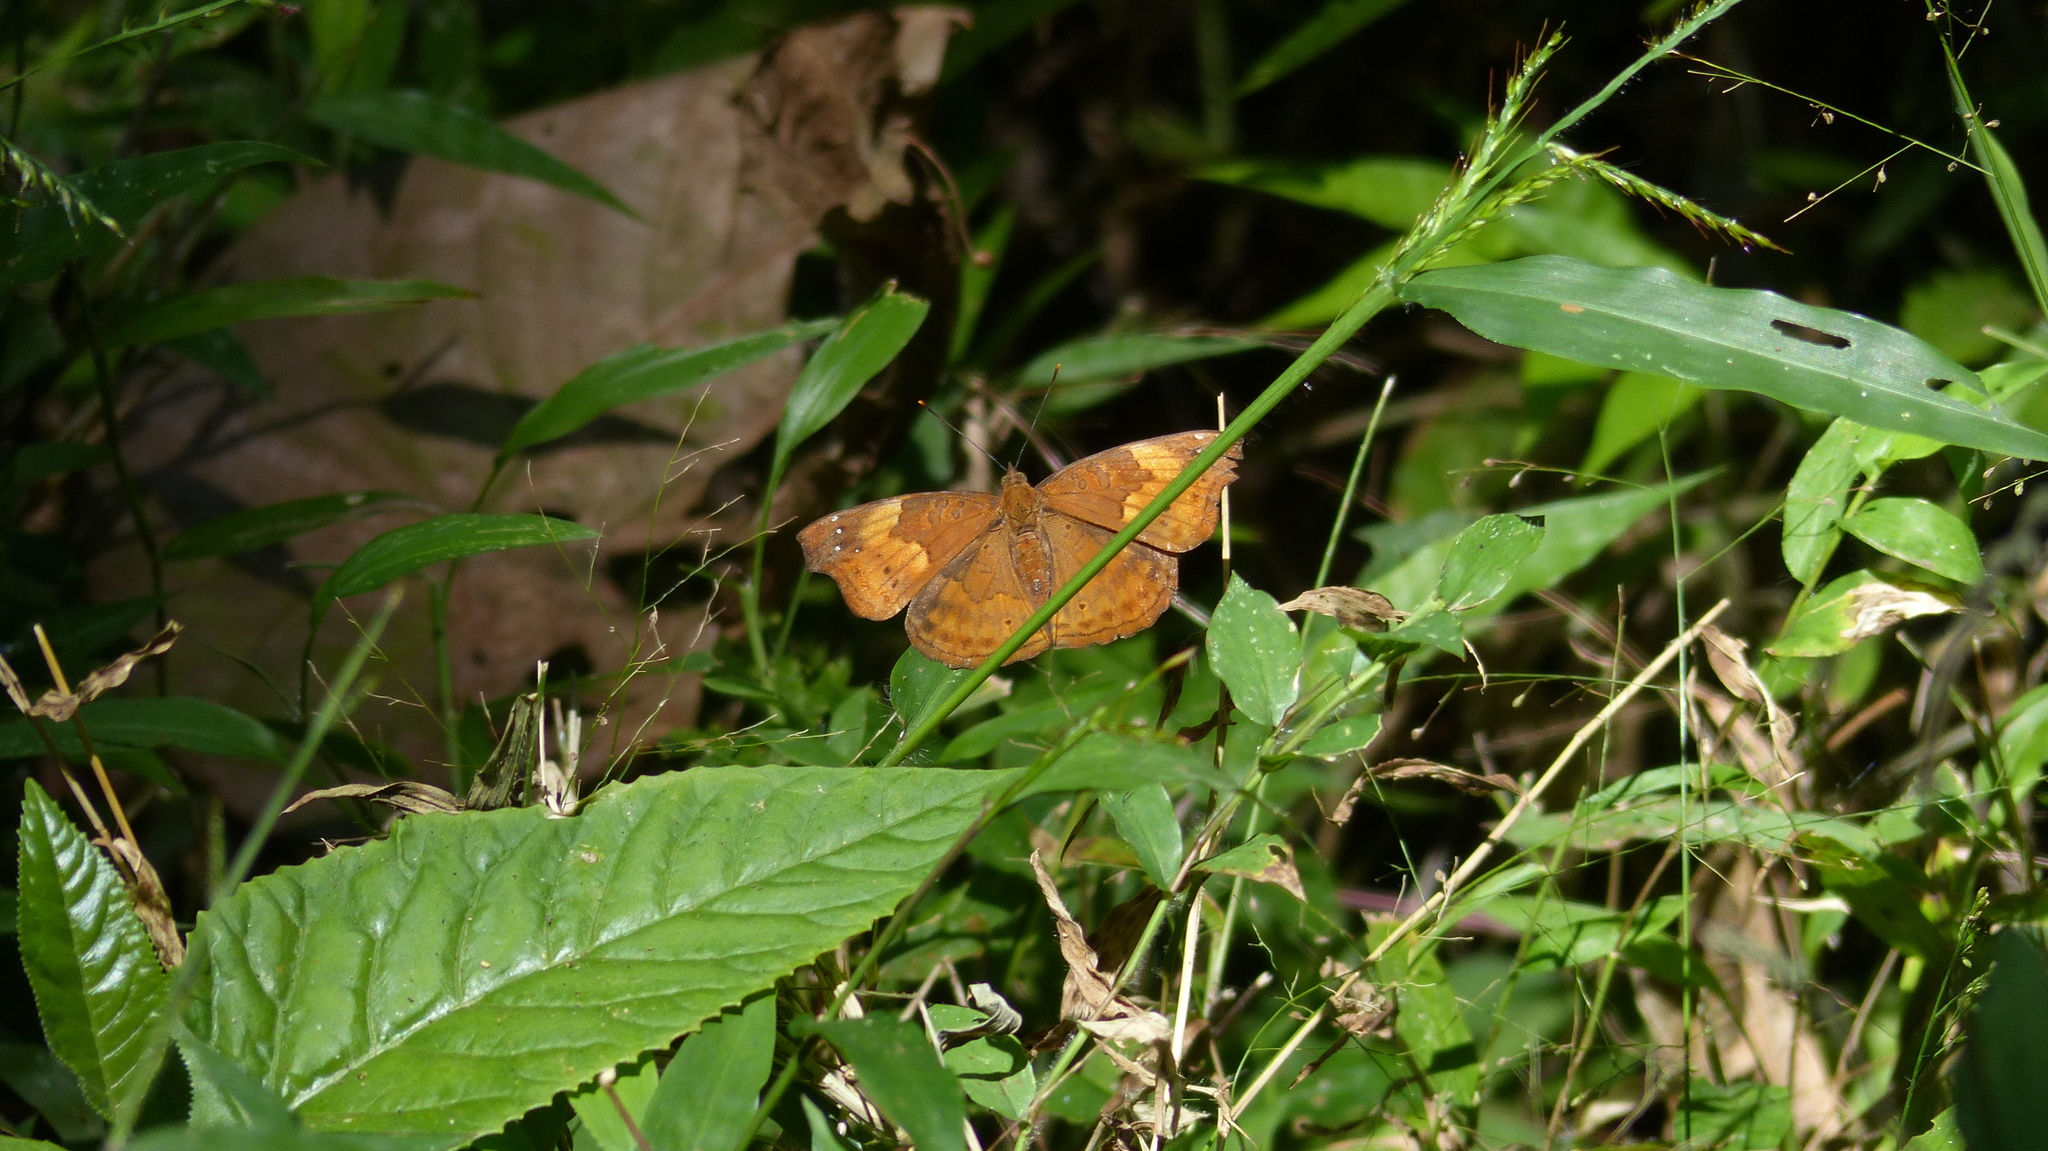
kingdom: Animalia
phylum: Arthropoda
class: Insecta
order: Lepidoptera
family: Nymphalidae
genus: Apatura
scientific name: Apatura Rohana spec
